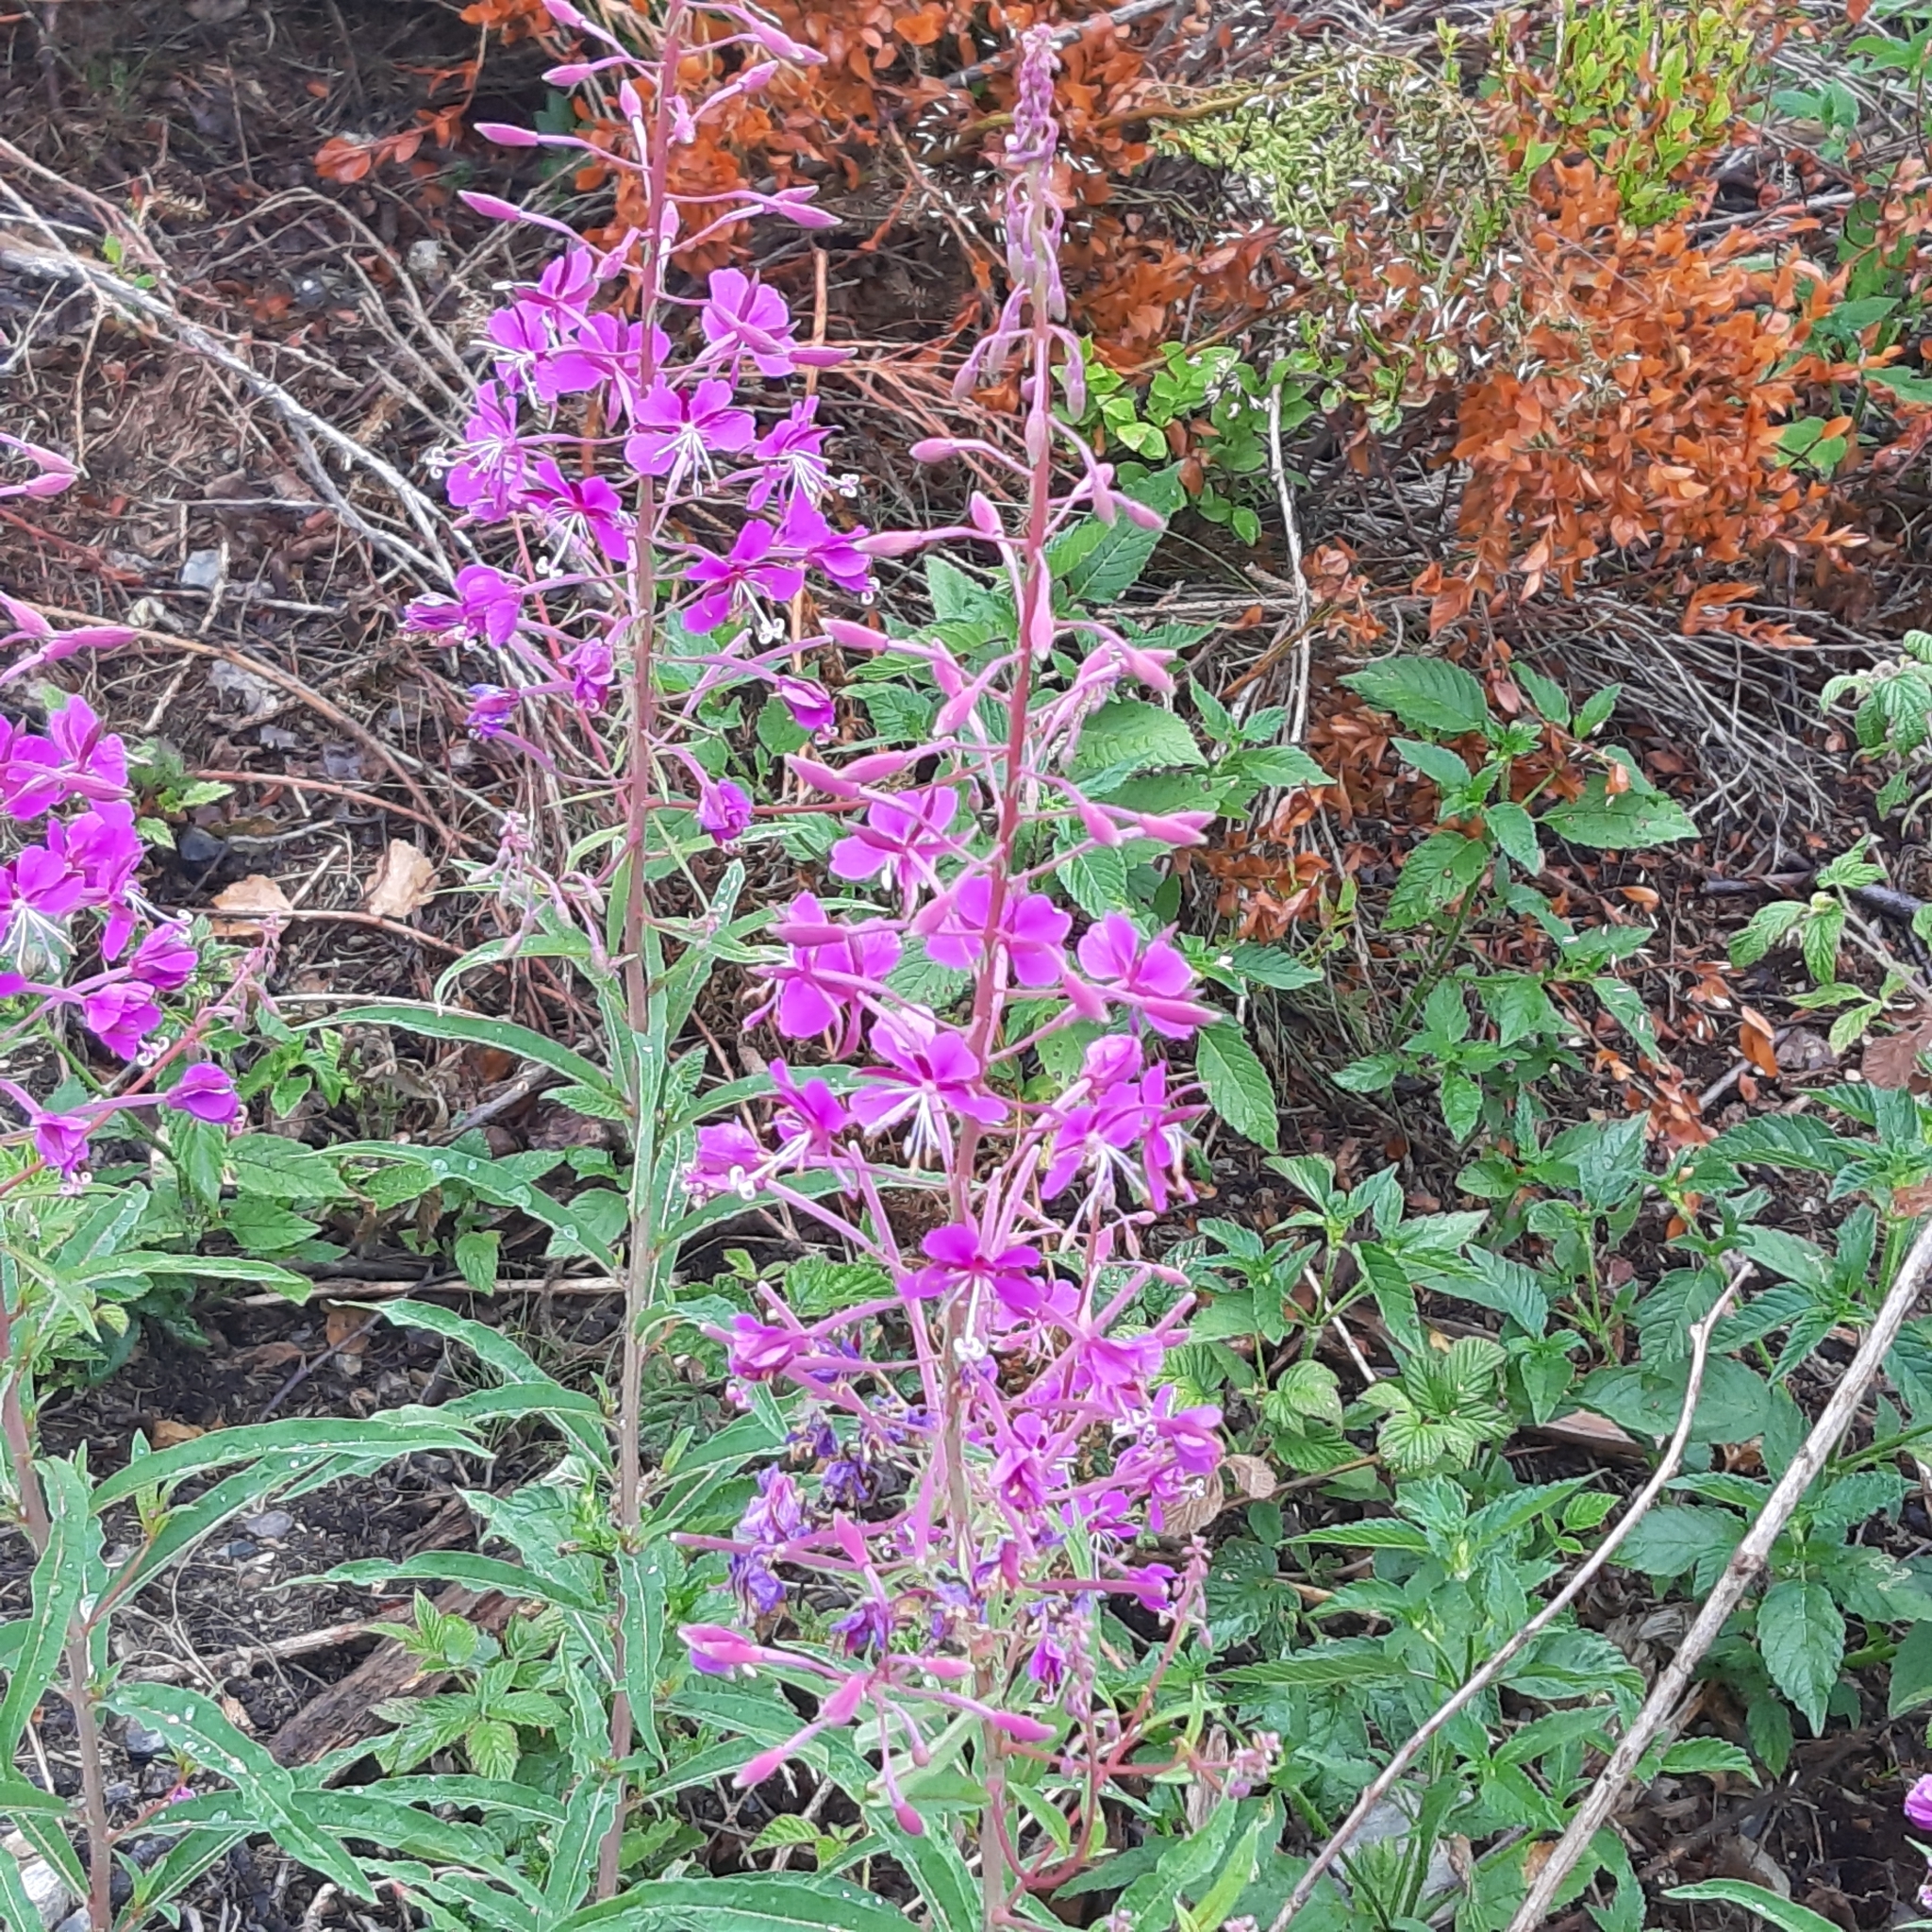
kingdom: Plantae
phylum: Tracheophyta
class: Magnoliopsida
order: Myrtales
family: Onagraceae
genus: Chamaenerion
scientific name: Chamaenerion angustifolium
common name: Fireweed
